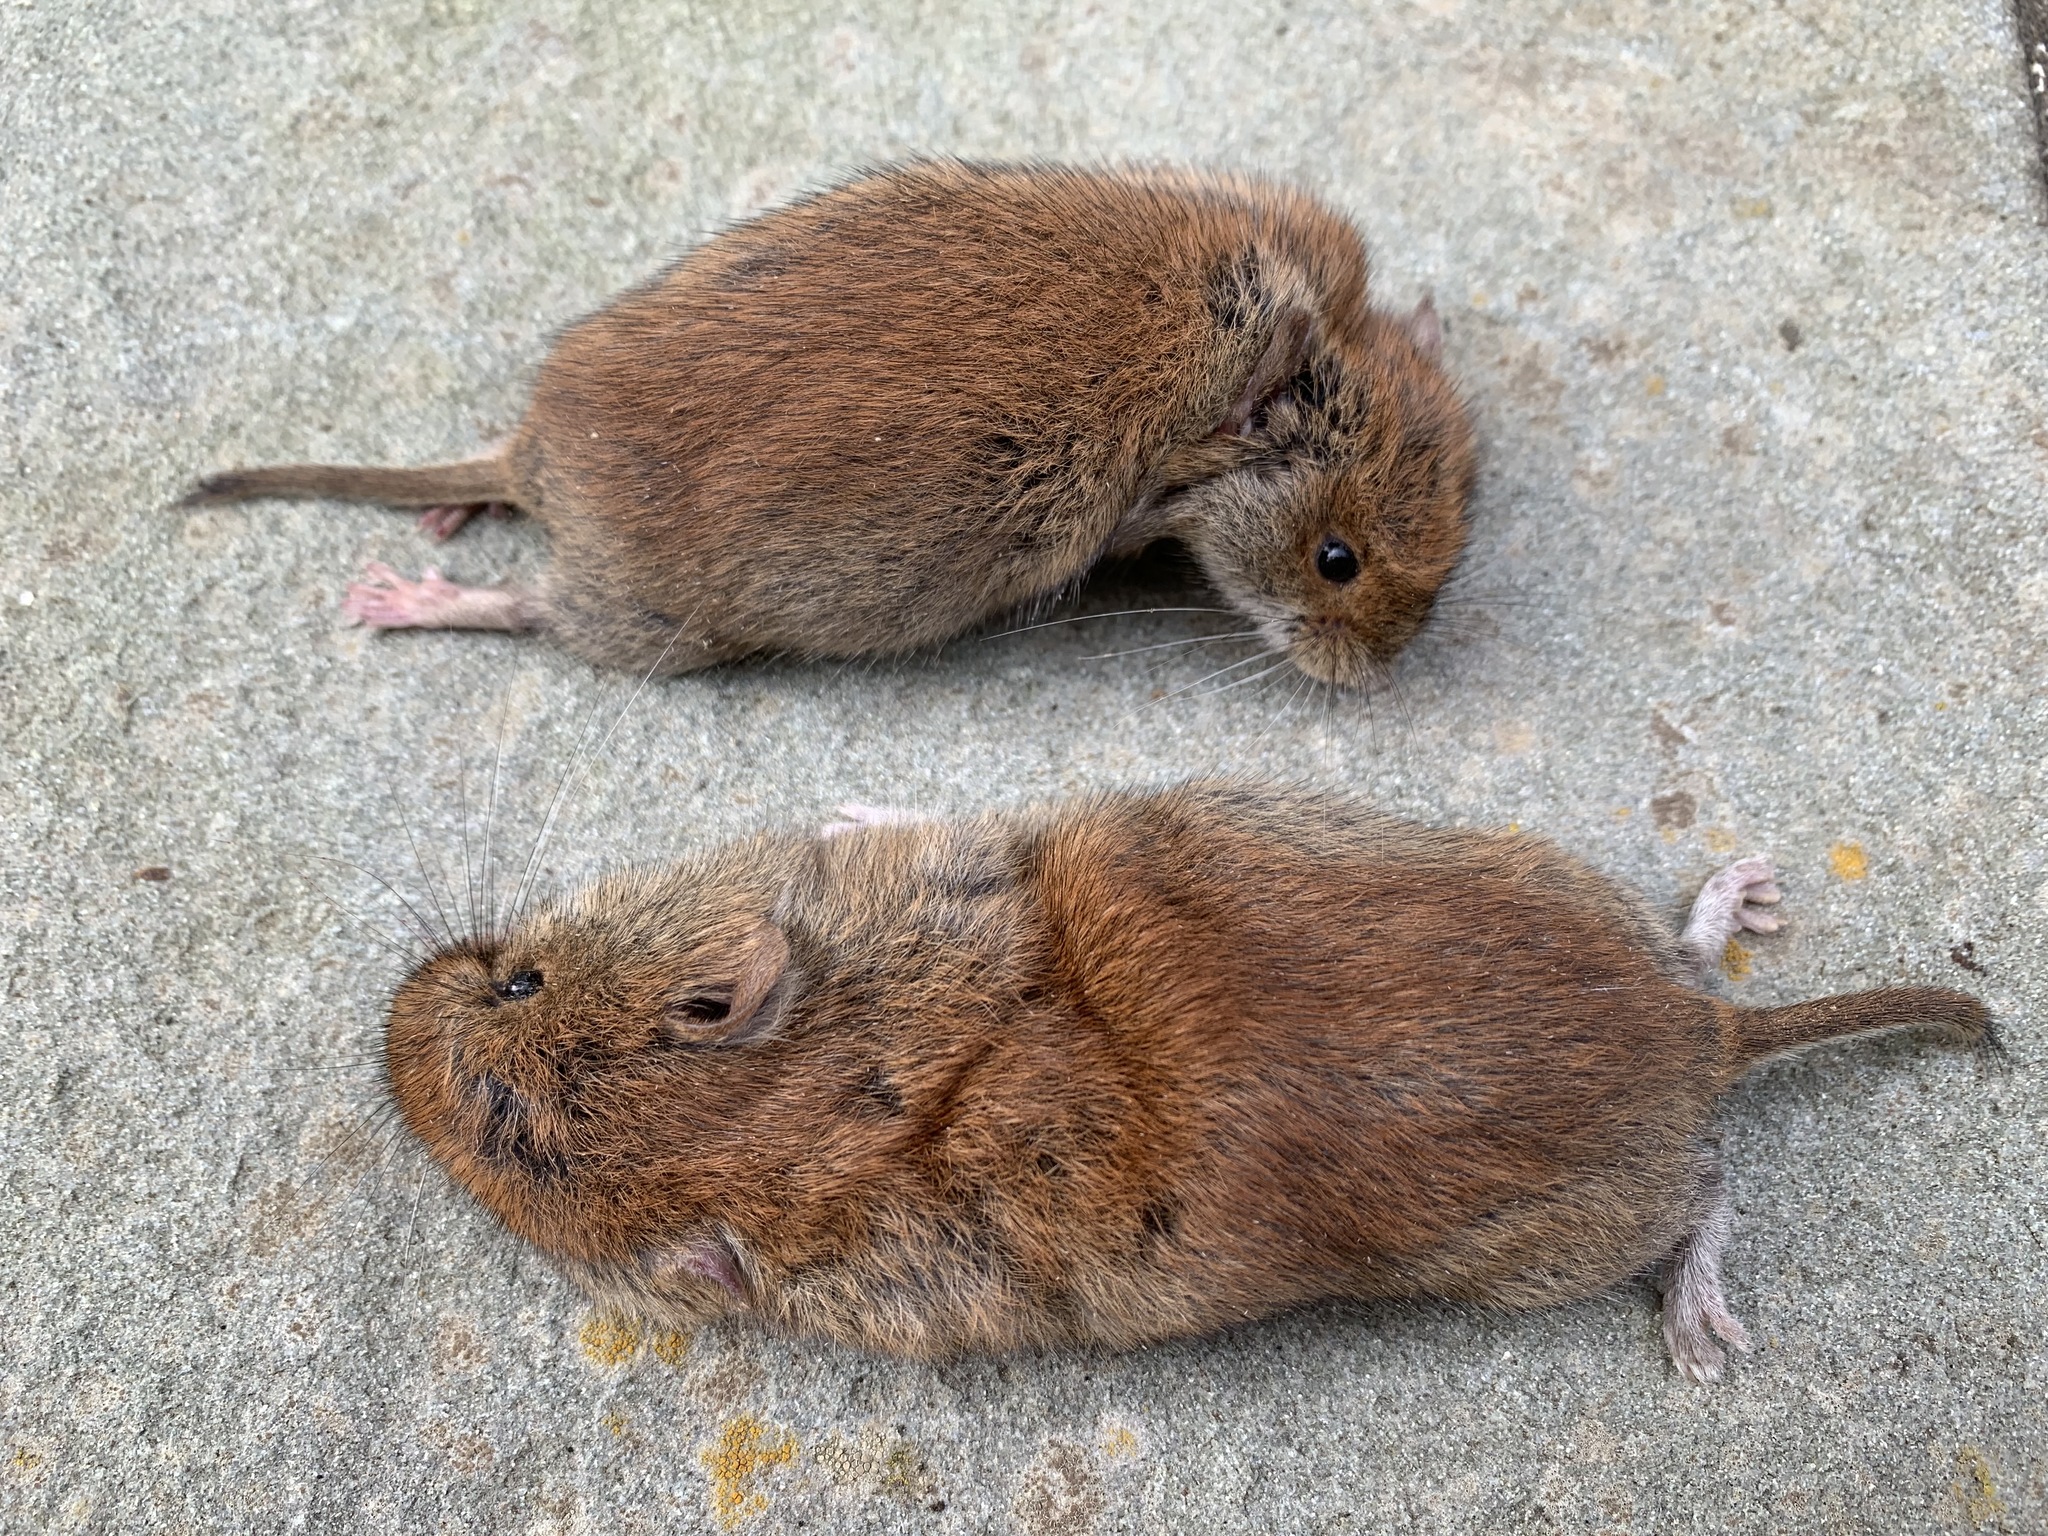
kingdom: Animalia
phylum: Chordata
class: Mammalia
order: Rodentia
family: Cricetidae
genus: Myodes
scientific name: Myodes gapperi
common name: Southern red-backed vole
